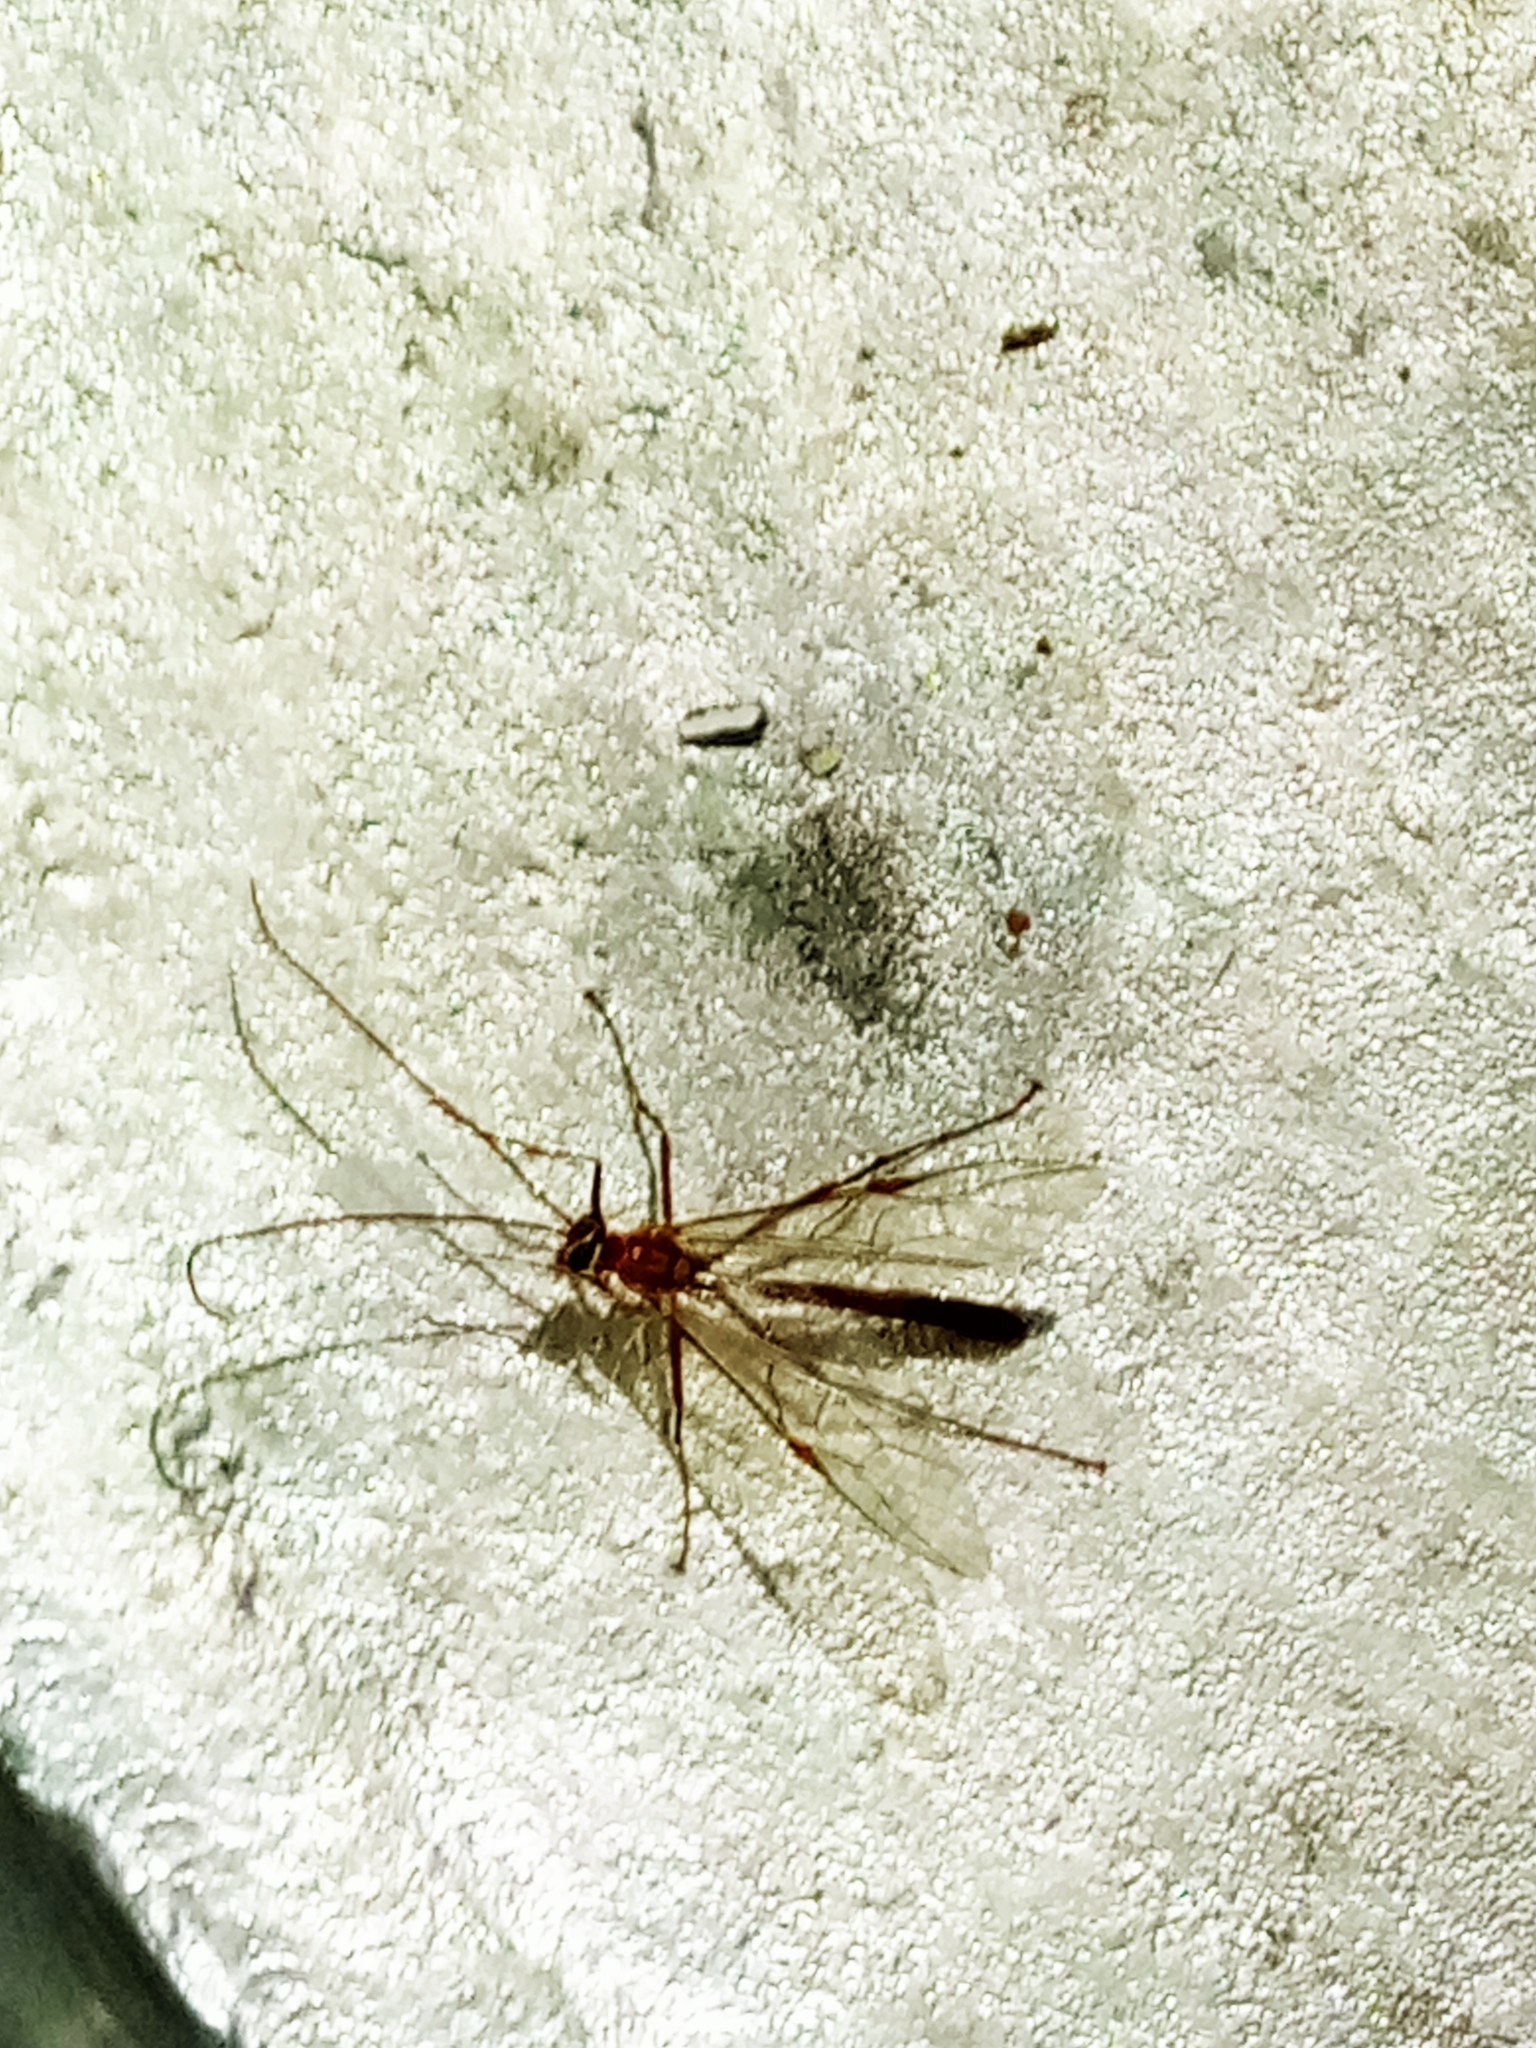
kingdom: Animalia
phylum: Arthropoda
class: Insecta
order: Hymenoptera
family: Ichneumonidae
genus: Ophion
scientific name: Ophion
